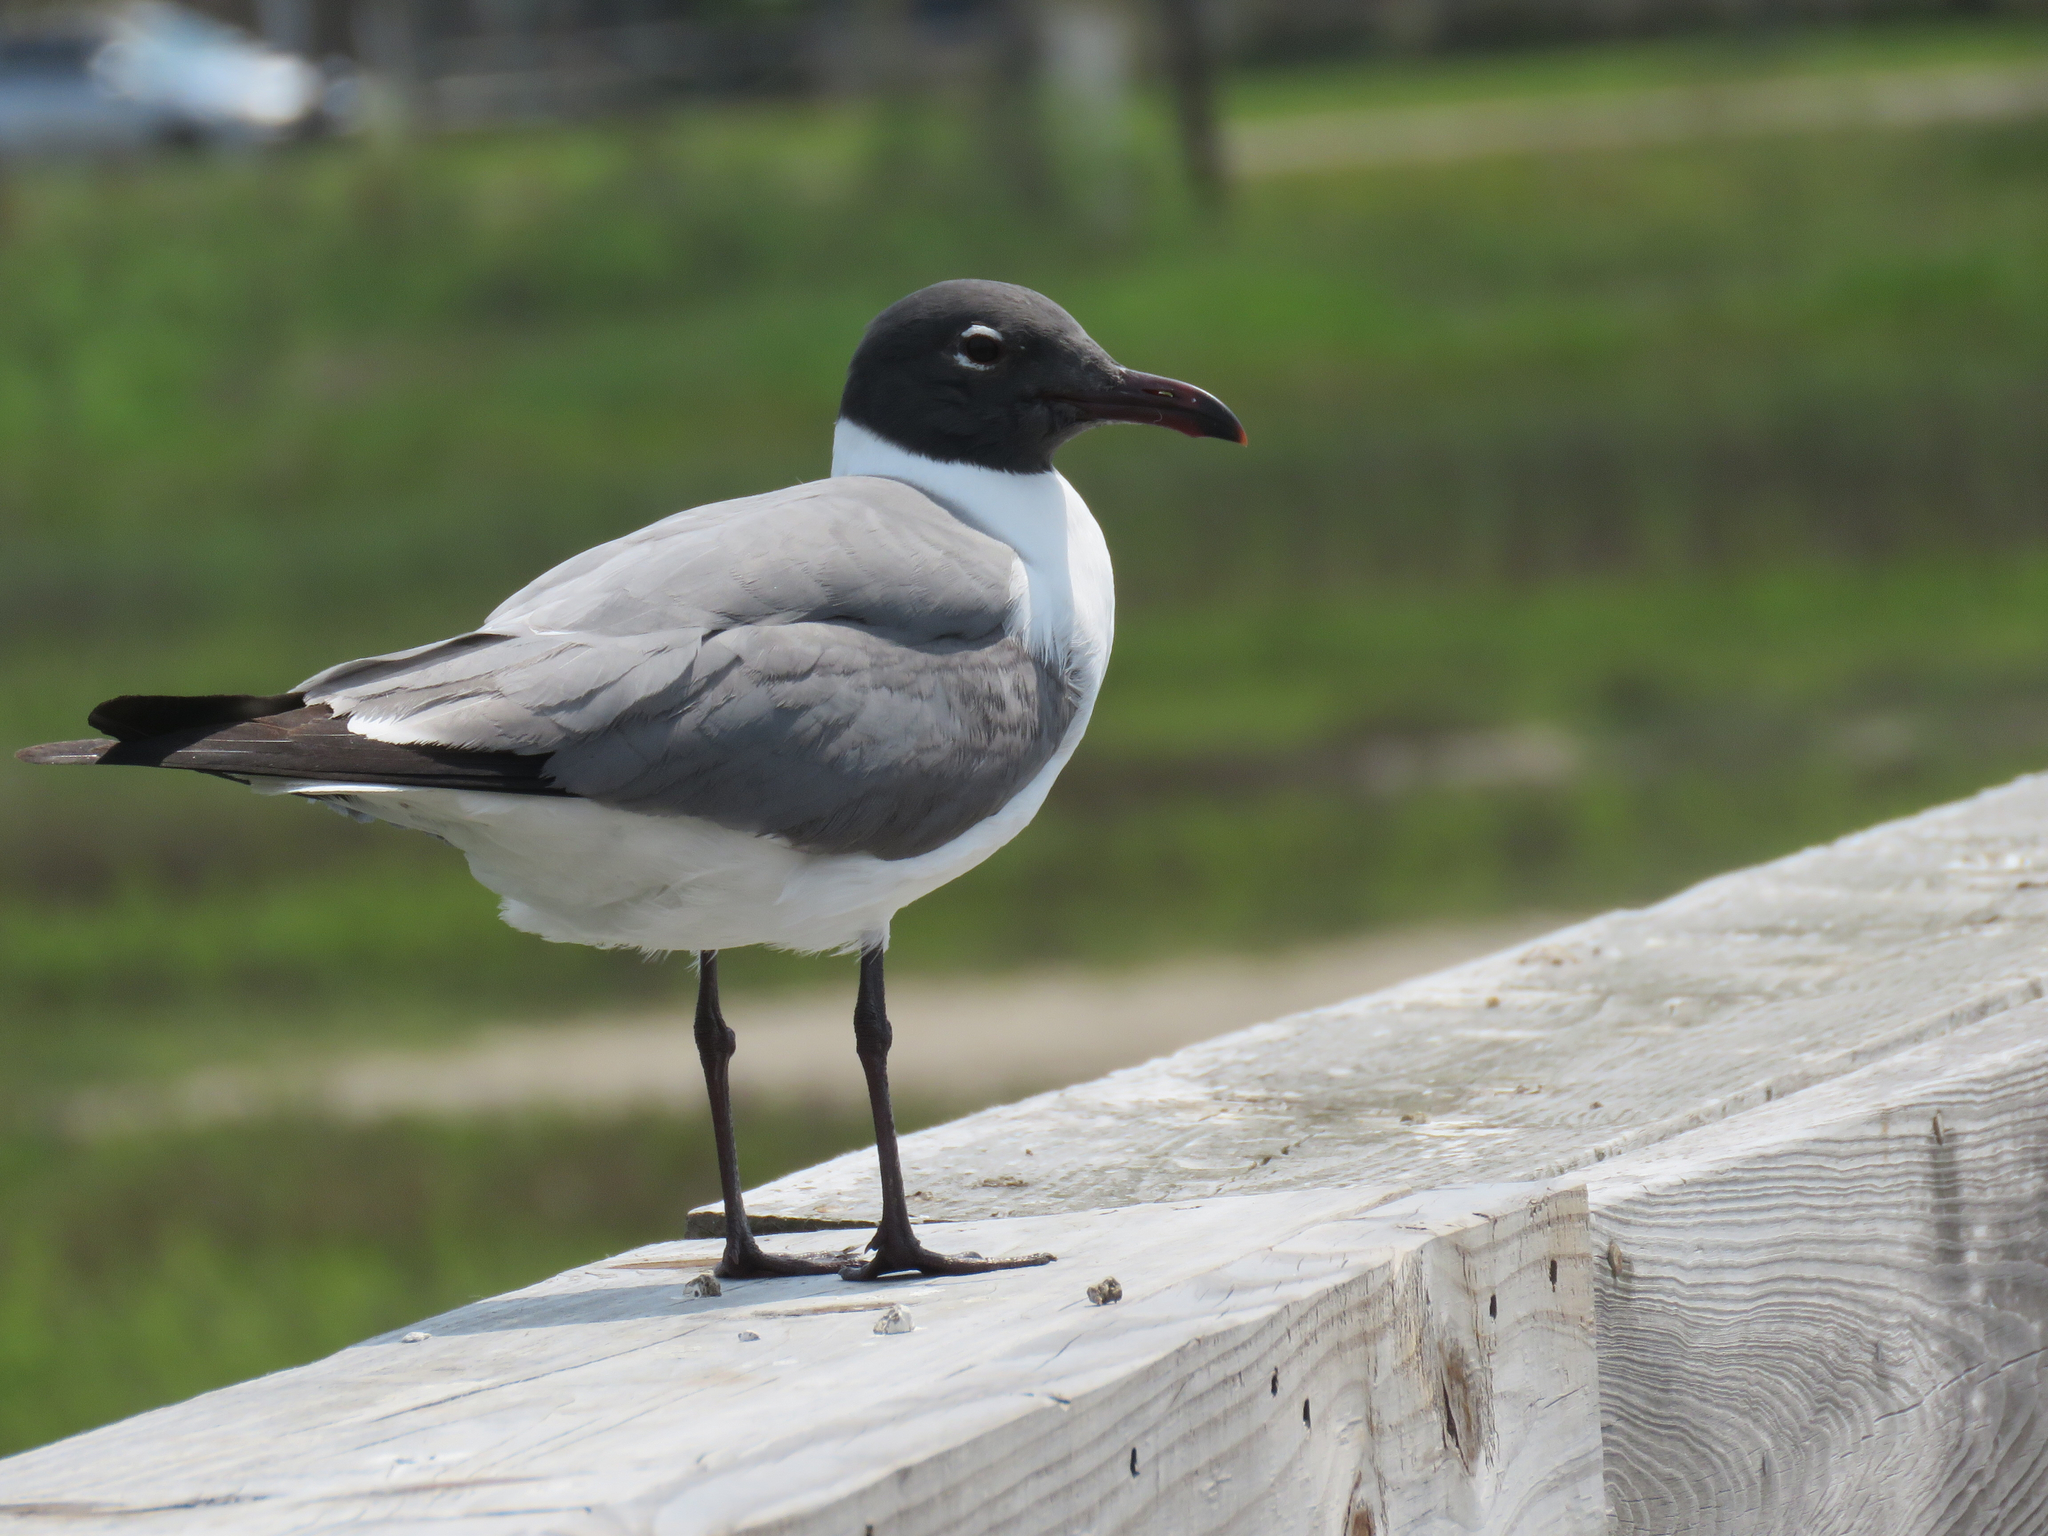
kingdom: Animalia
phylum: Chordata
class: Aves
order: Charadriiformes
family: Laridae
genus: Leucophaeus
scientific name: Leucophaeus atricilla
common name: Laughing gull
